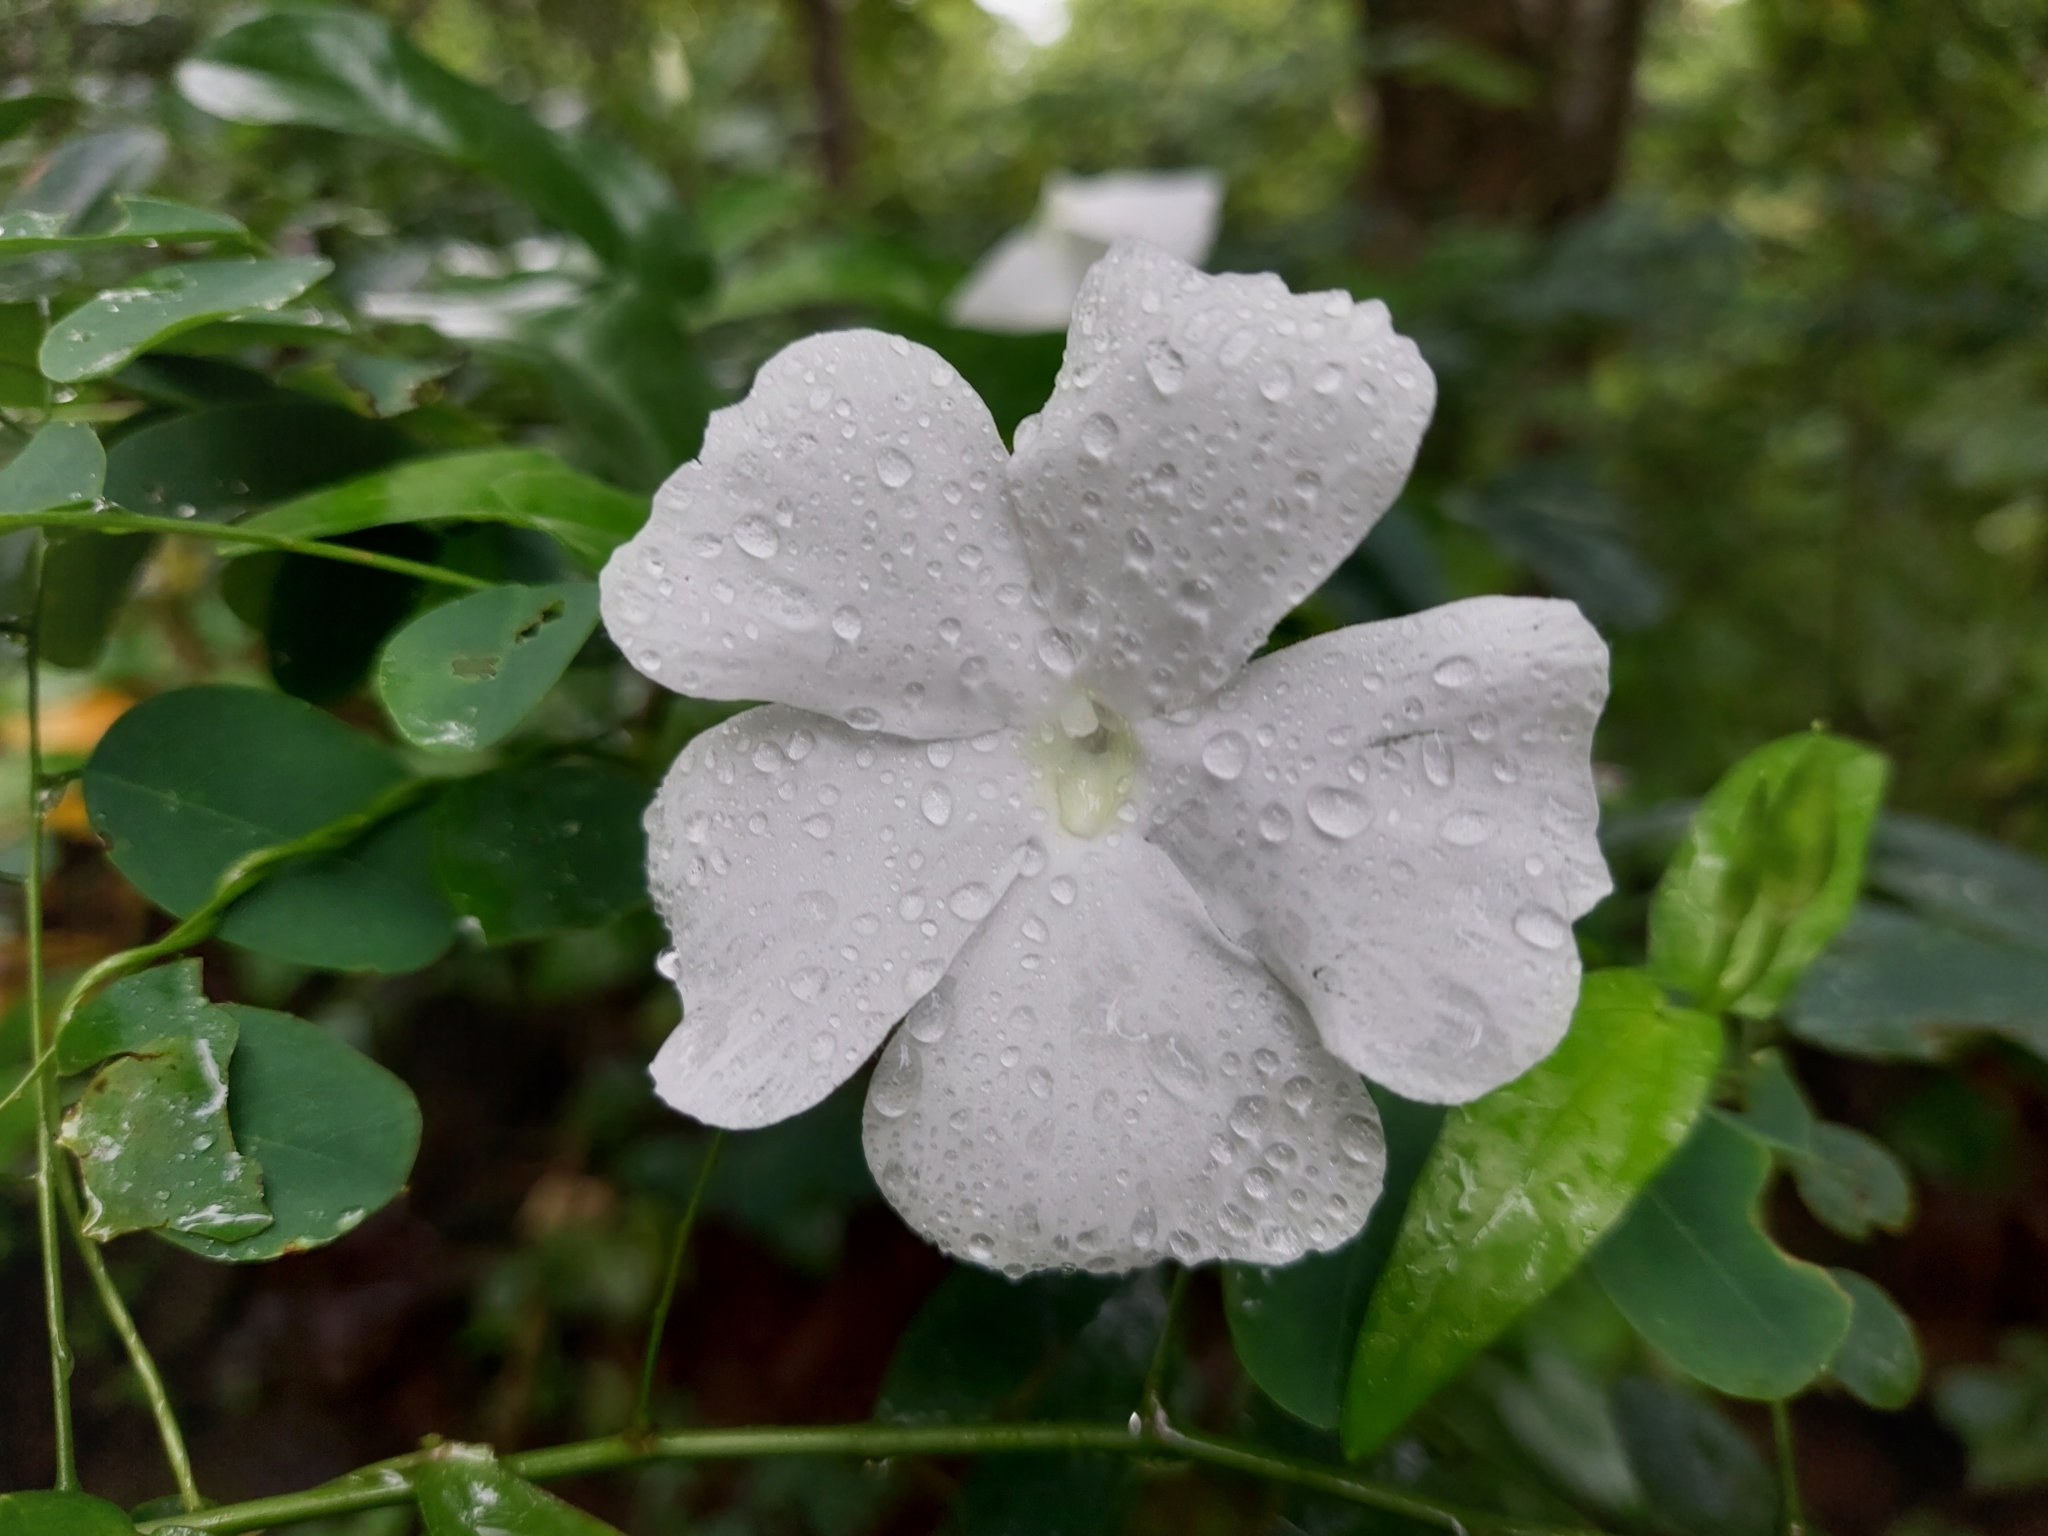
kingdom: Plantae
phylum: Tracheophyta
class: Magnoliopsida
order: Lamiales
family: Acanthaceae
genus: Thunbergia
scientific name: Thunbergia fragrans
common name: Whitelady
